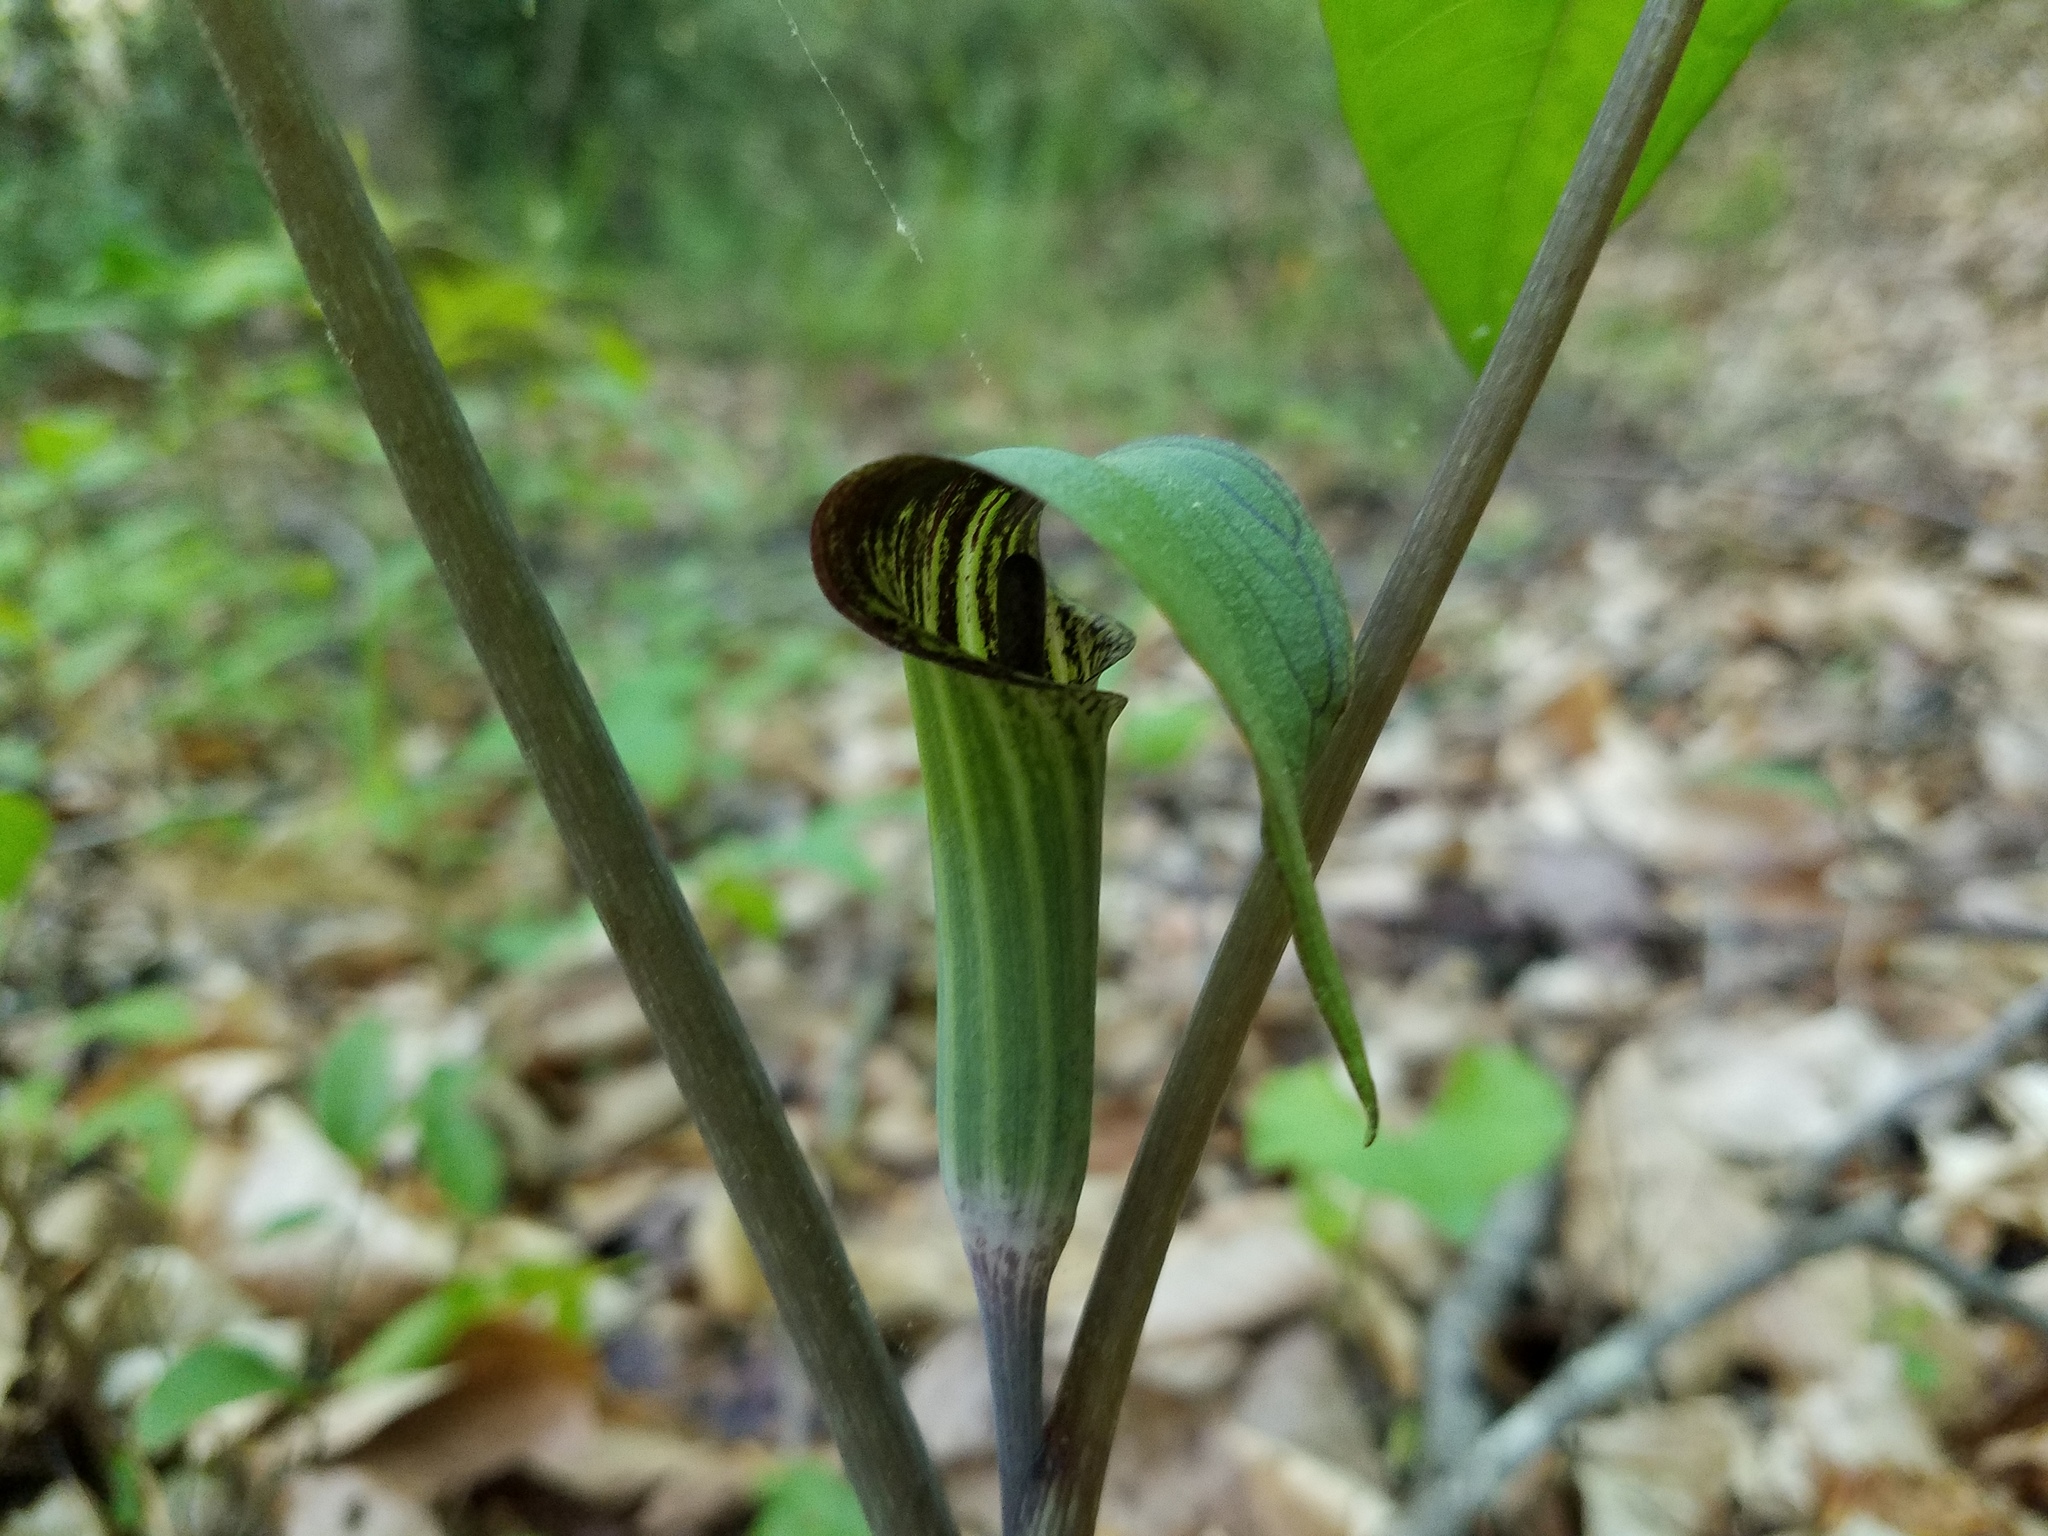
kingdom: Plantae
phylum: Tracheophyta
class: Liliopsida
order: Alismatales
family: Araceae
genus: Arisaema
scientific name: Arisaema triphyllum
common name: Jack-in-the-pulpit
